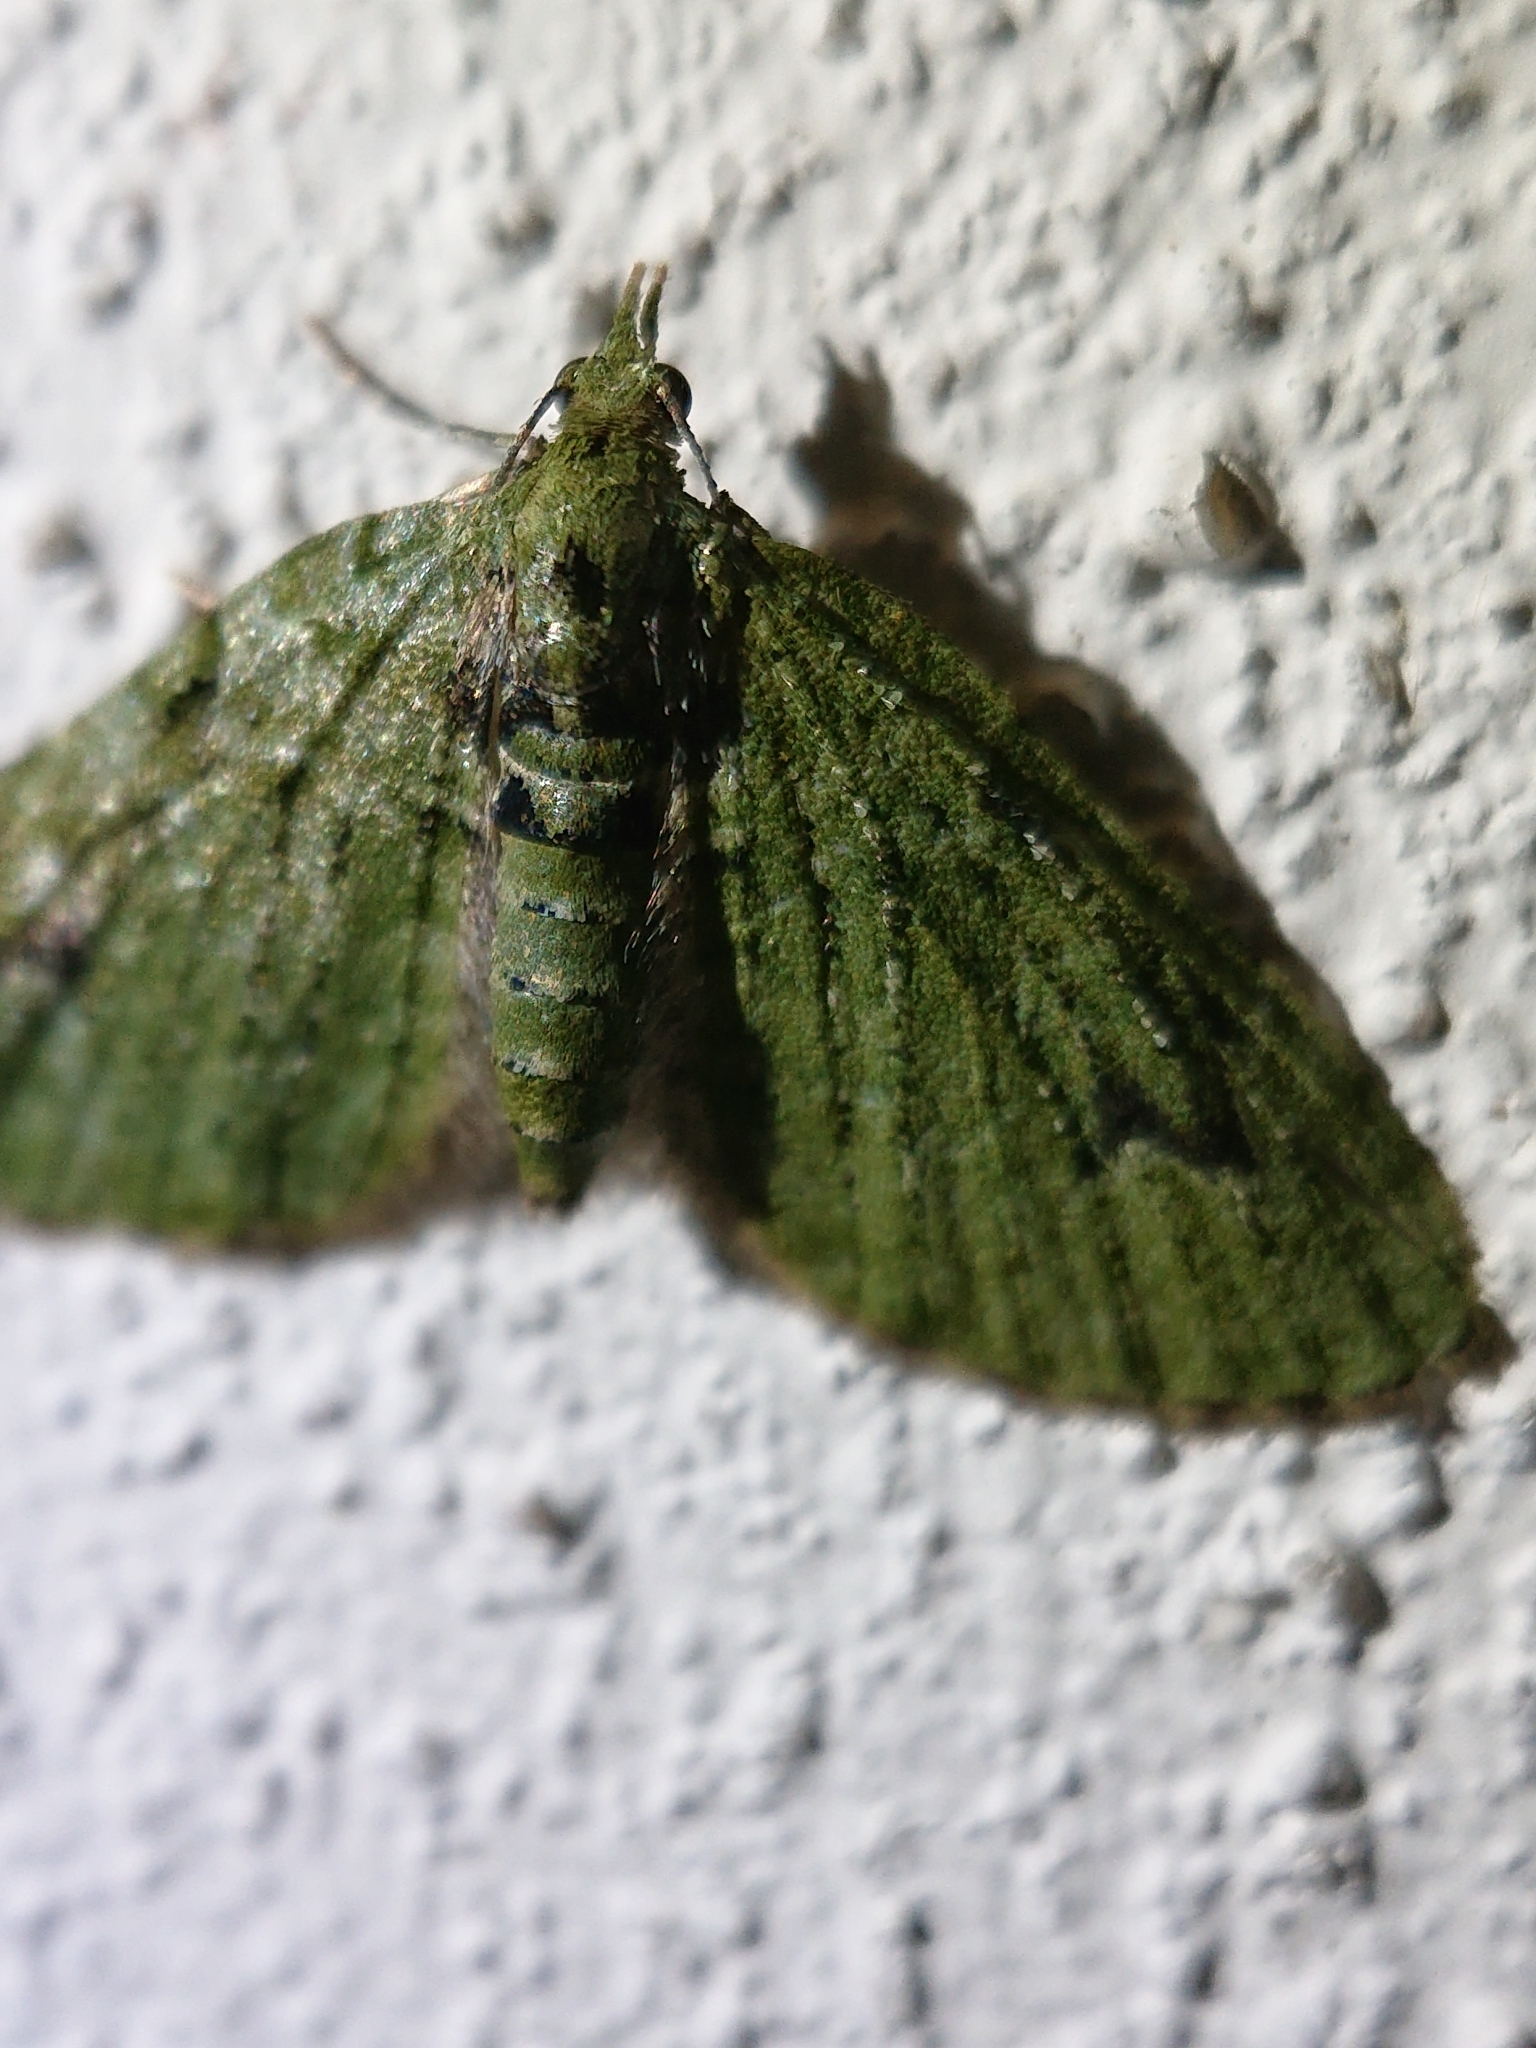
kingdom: Animalia
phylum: Arthropoda
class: Insecta
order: Lepidoptera
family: Geometridae
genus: Chloroclystis
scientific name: Chloroclystis v-ata
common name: V-pug
